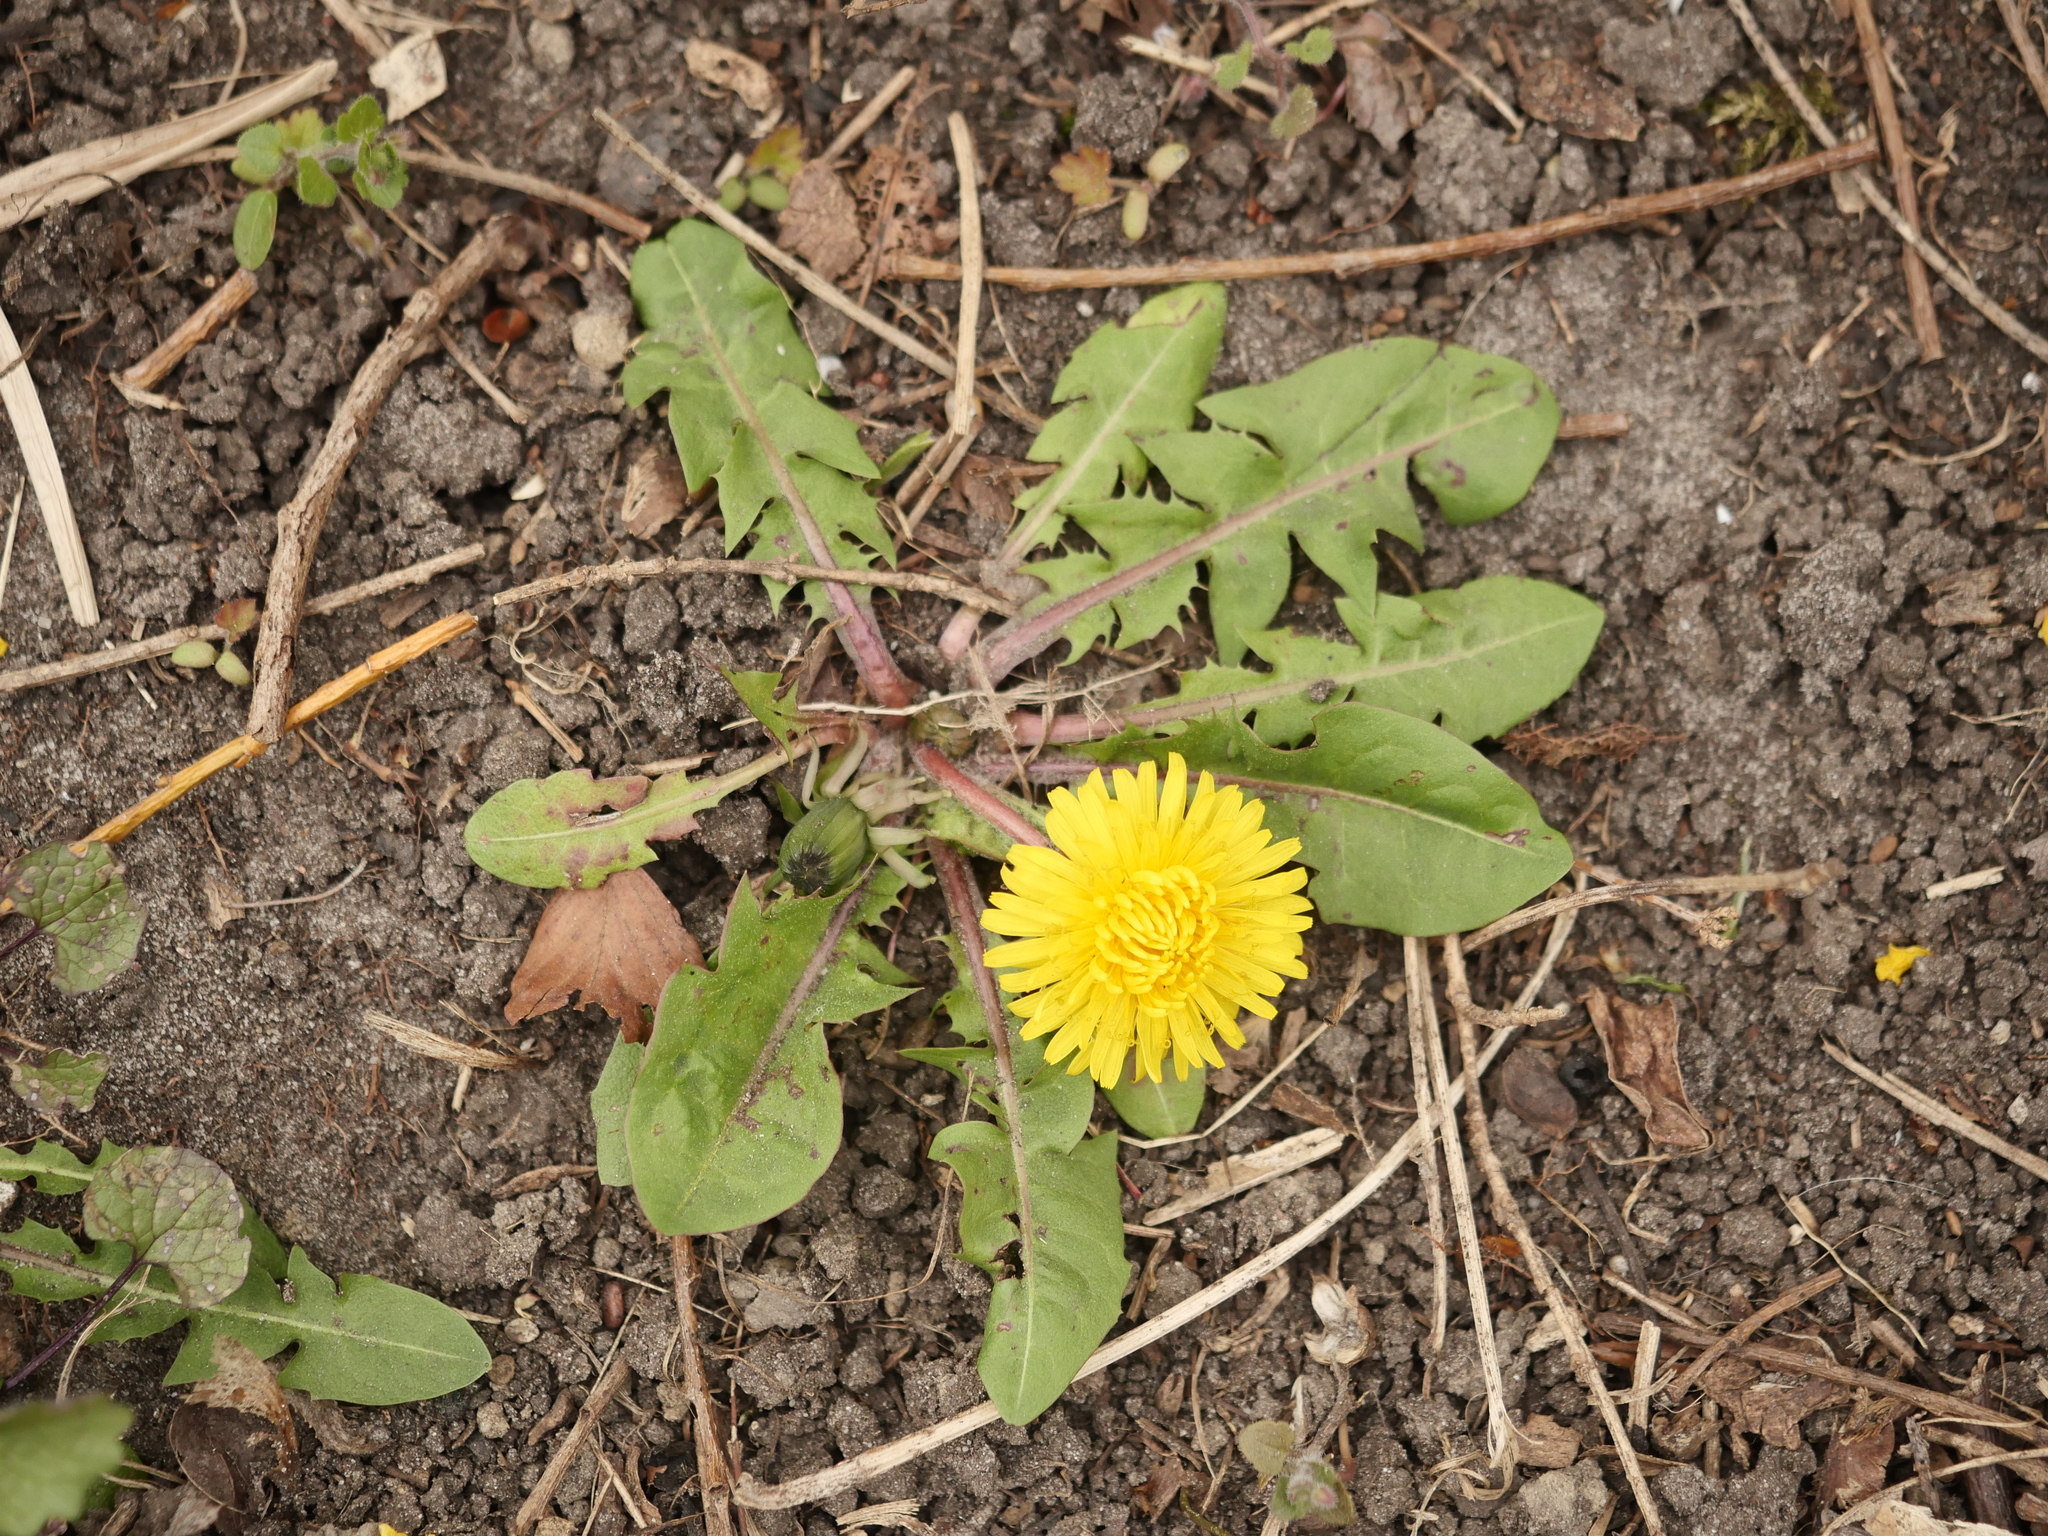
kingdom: Plantae
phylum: Tracheophyta
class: Magnoliopsida
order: Asterales
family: Asteraceae
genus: Taraxacum
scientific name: Taraxacum officinale
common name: Common dandelion
